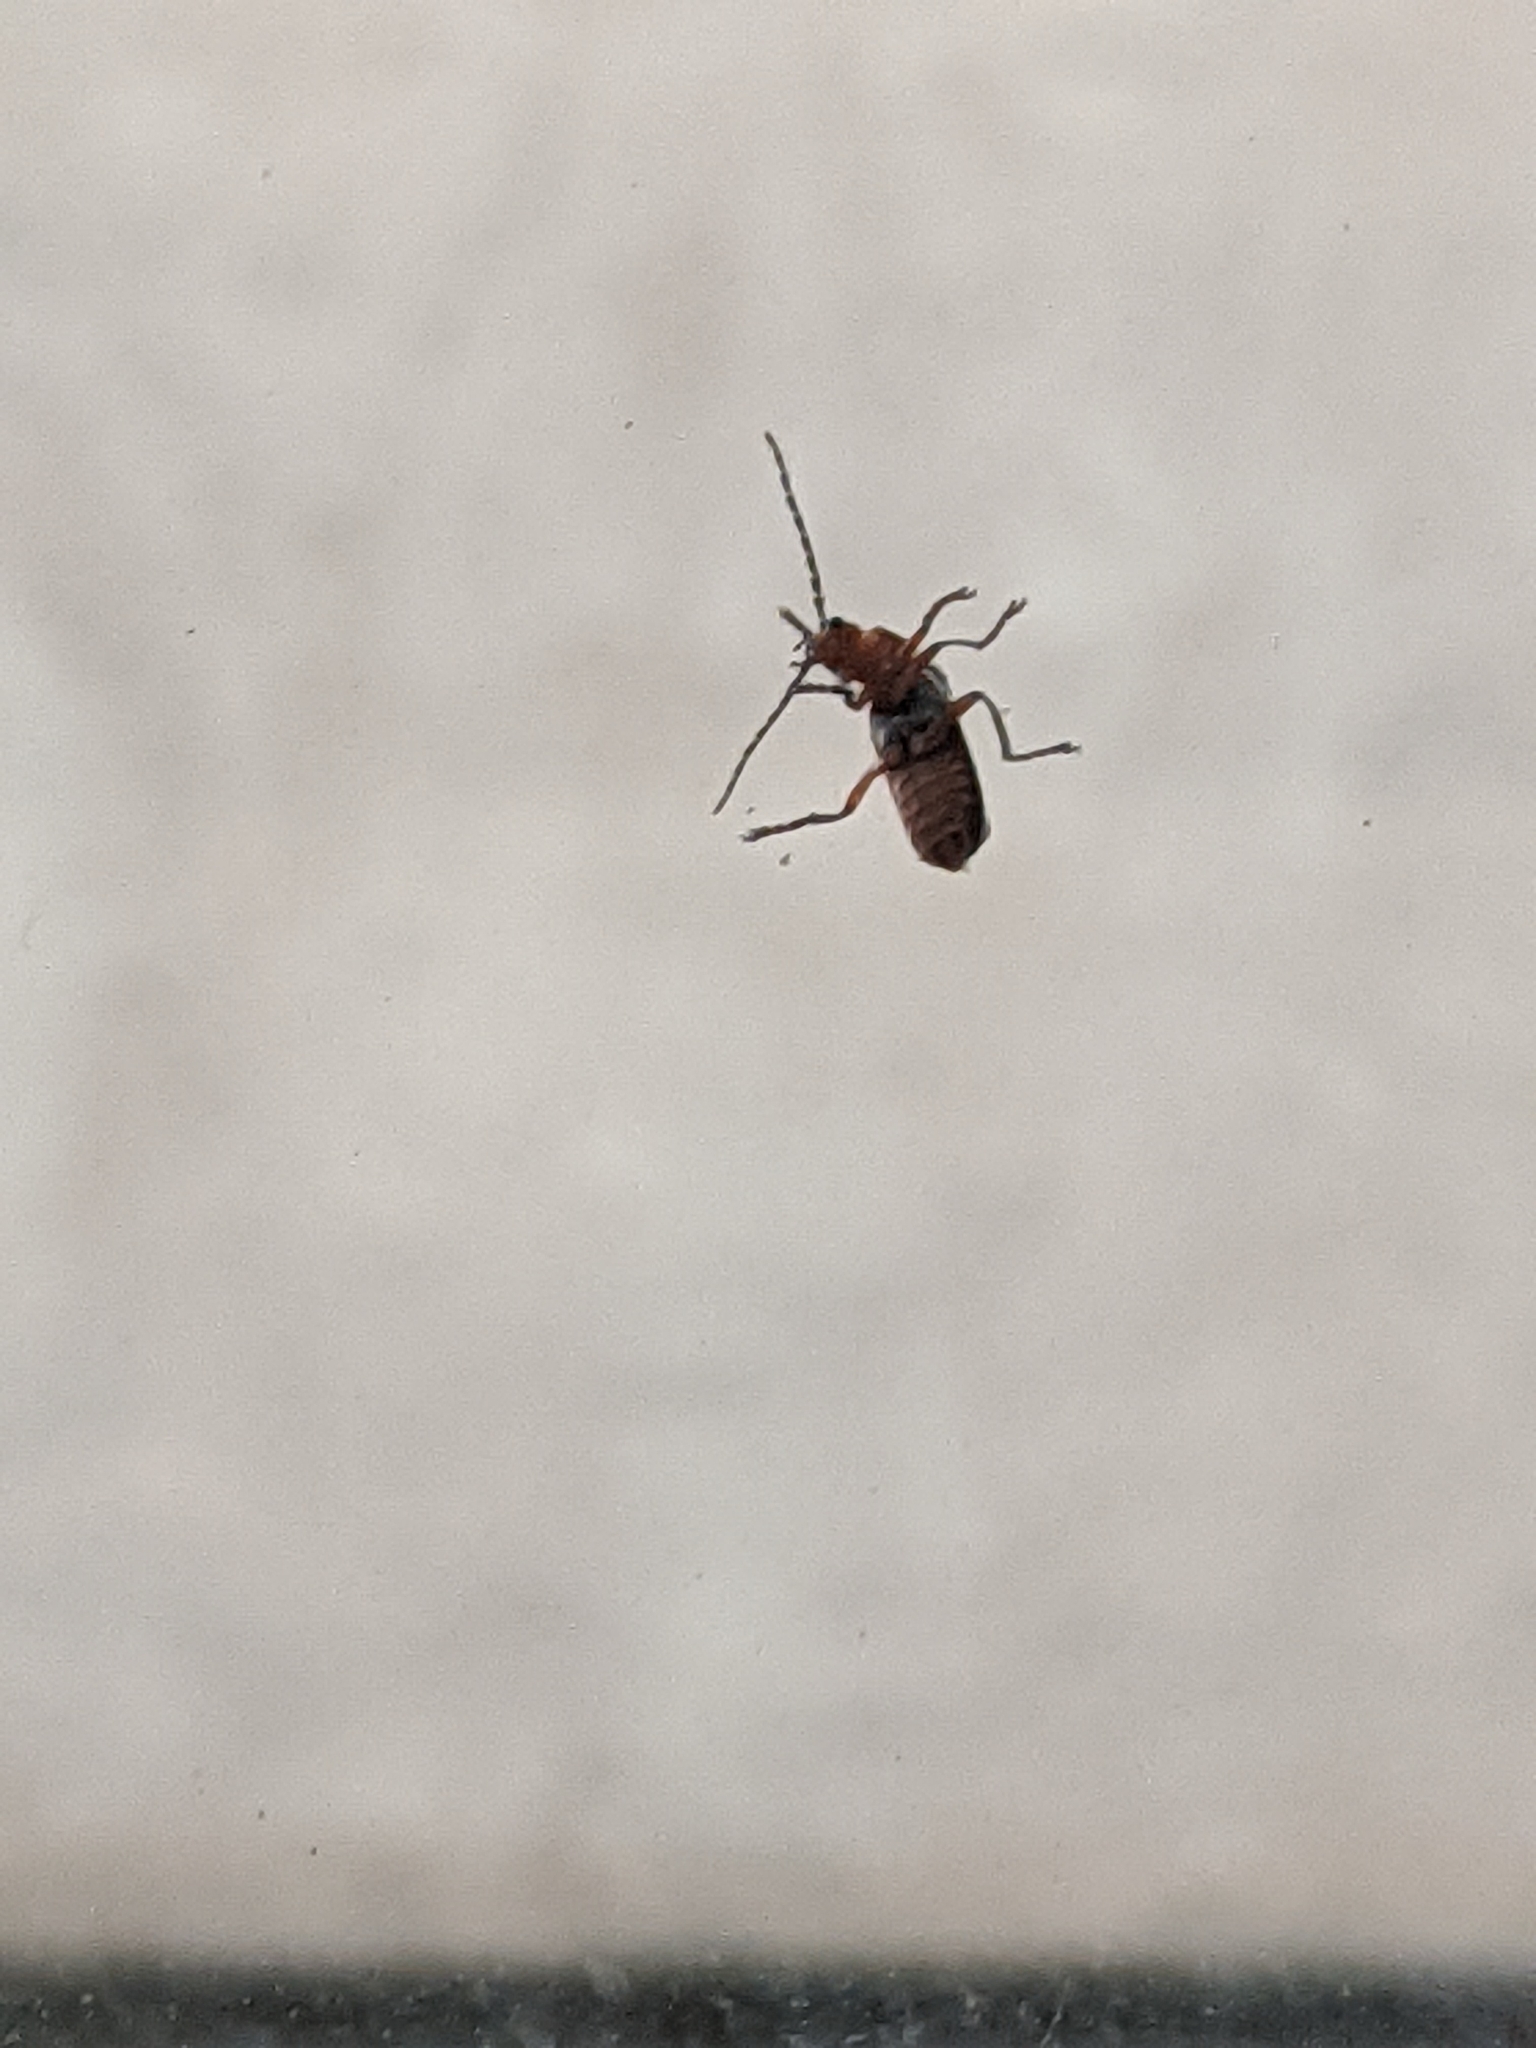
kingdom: Animalia
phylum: Arthropoda
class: Insecta
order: Coleoptera
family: Cantharidae
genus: Atalantycha
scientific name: Atalantycha bilineata
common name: Two-lined leatherwing
